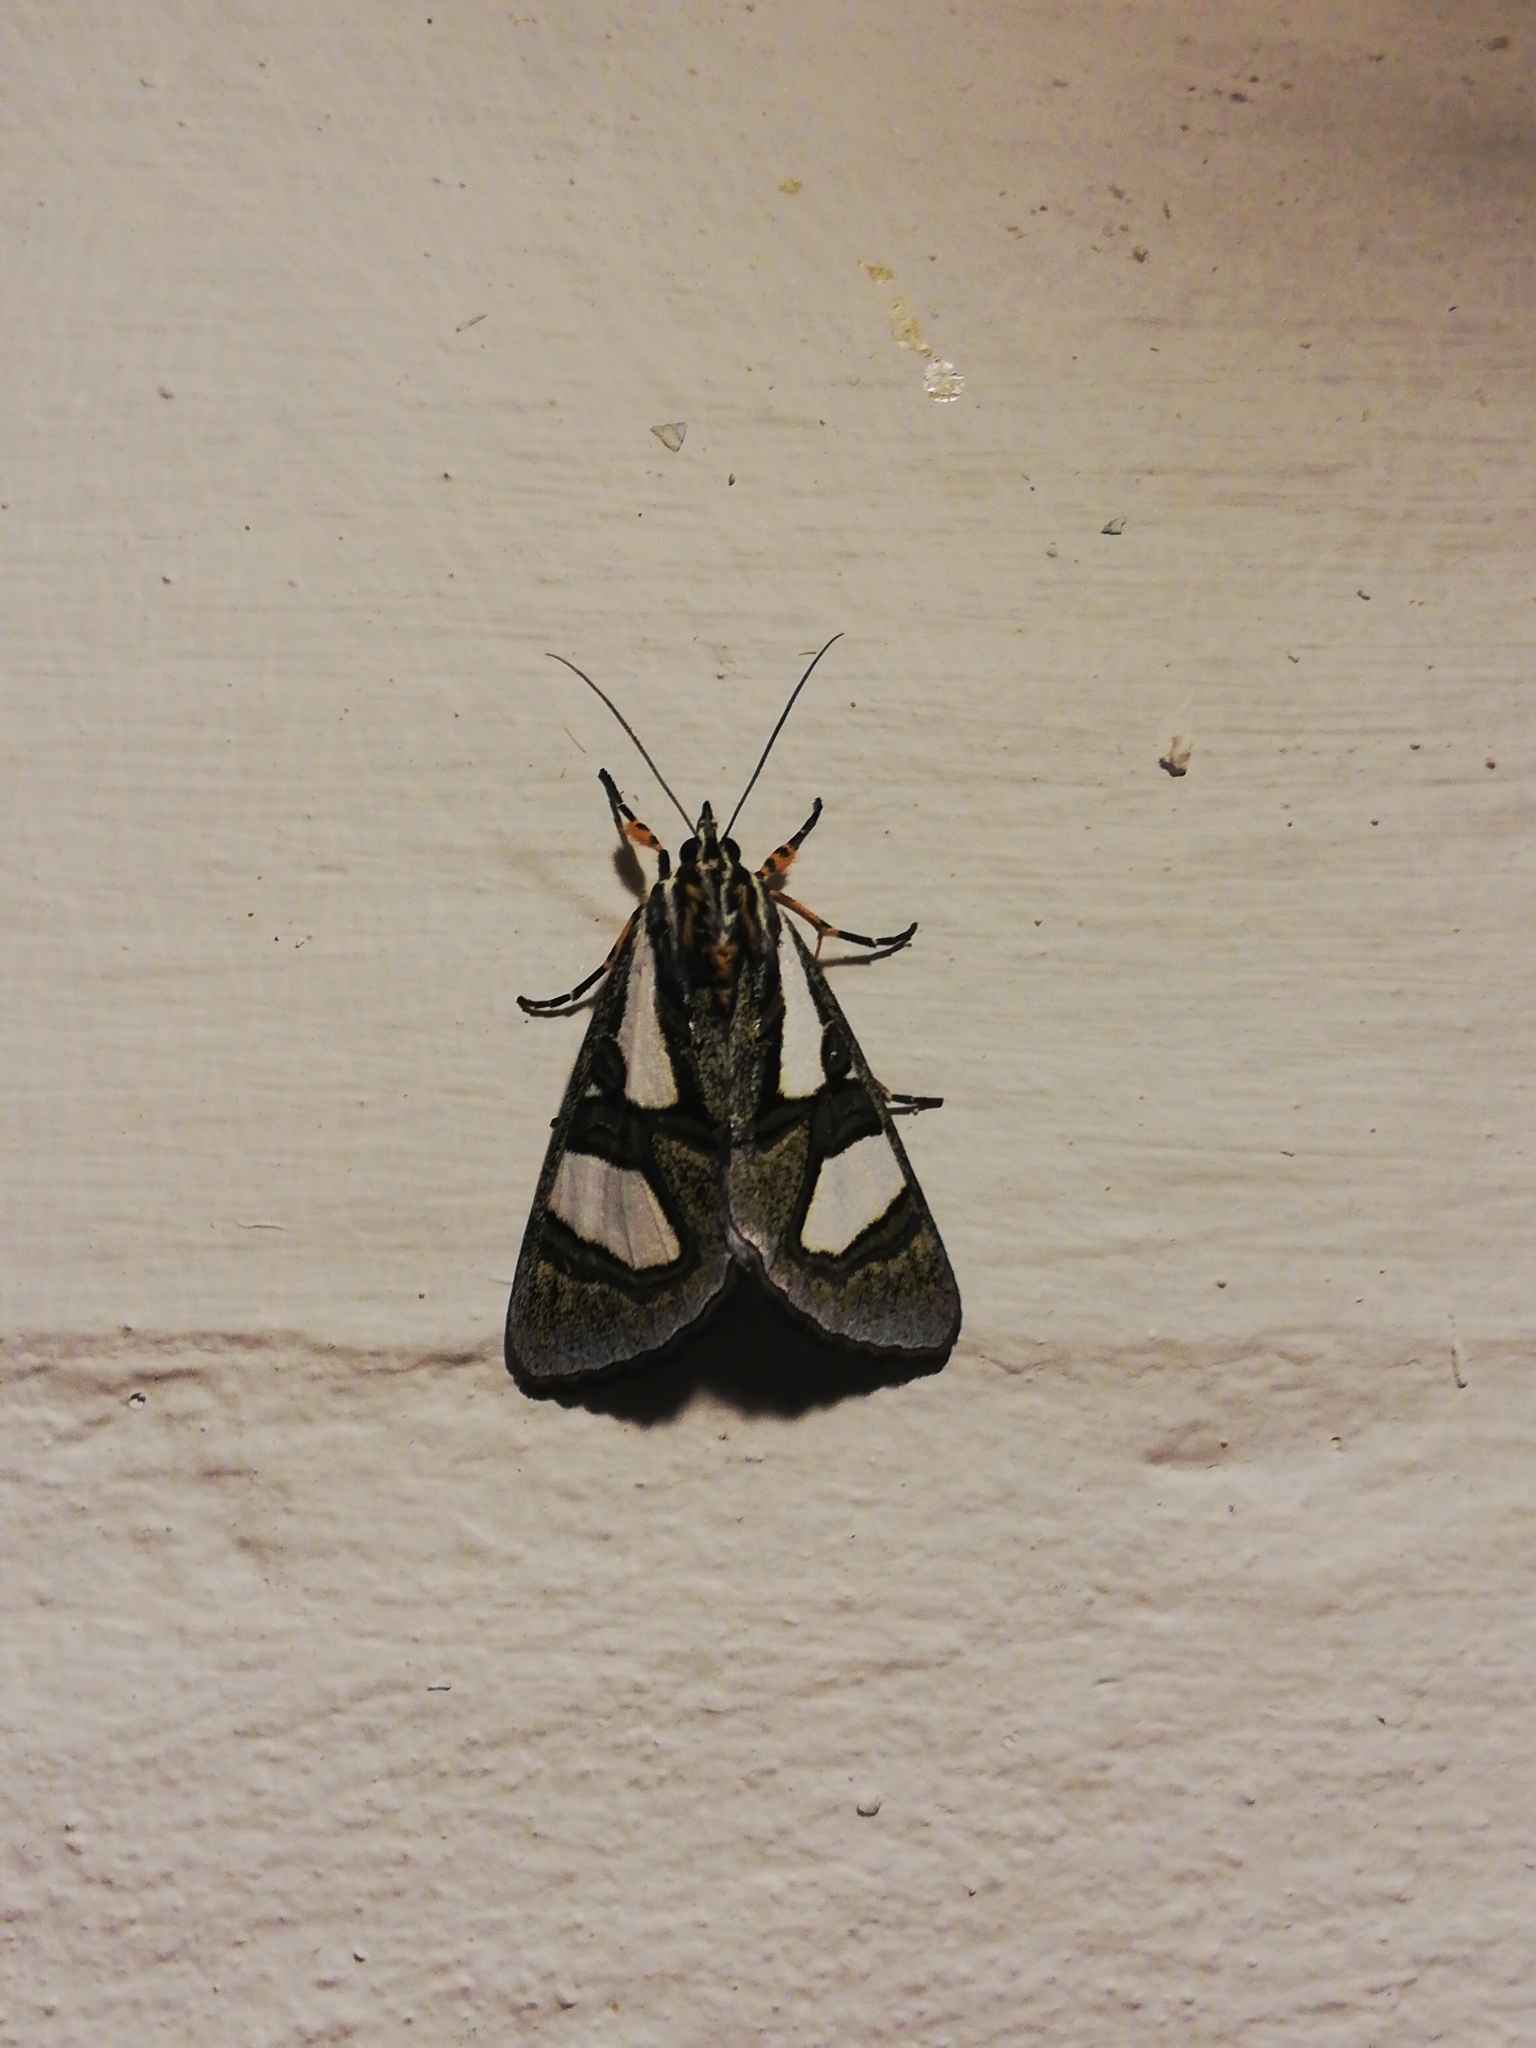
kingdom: Animalia
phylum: Arthropoda
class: Insecta
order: Lepidoptera
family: Noctuidae
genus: Agoma
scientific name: Agoma trimenii
